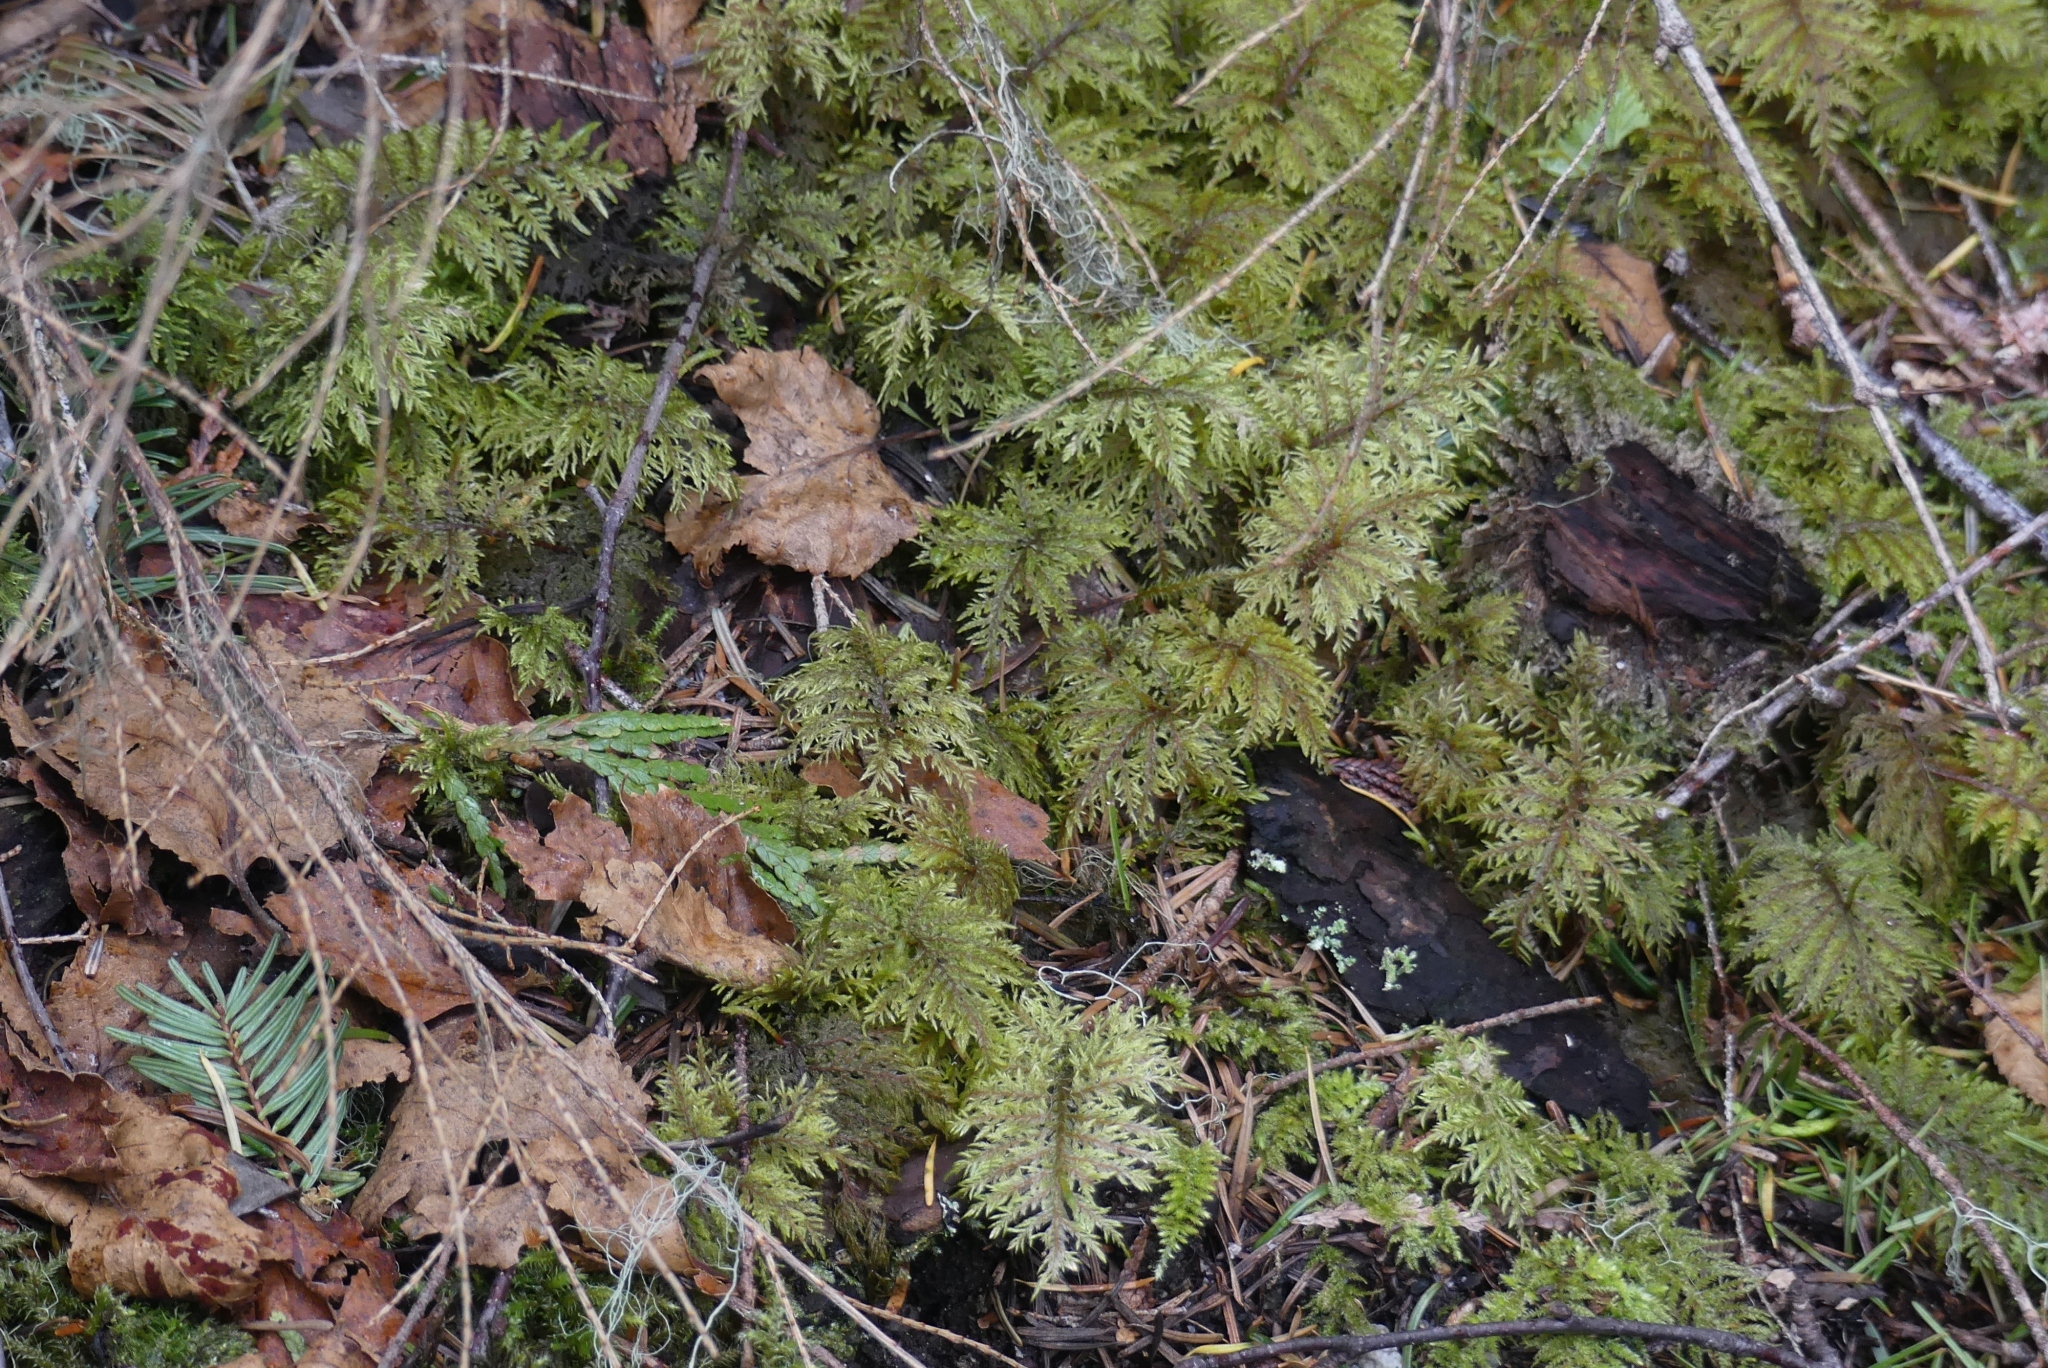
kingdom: Plantae
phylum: Bryophyta
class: Bryopsida
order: Hypnales
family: Hylocomiaceae
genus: Hylocomium
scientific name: Hylocomium splendens
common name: Stairstep moss
